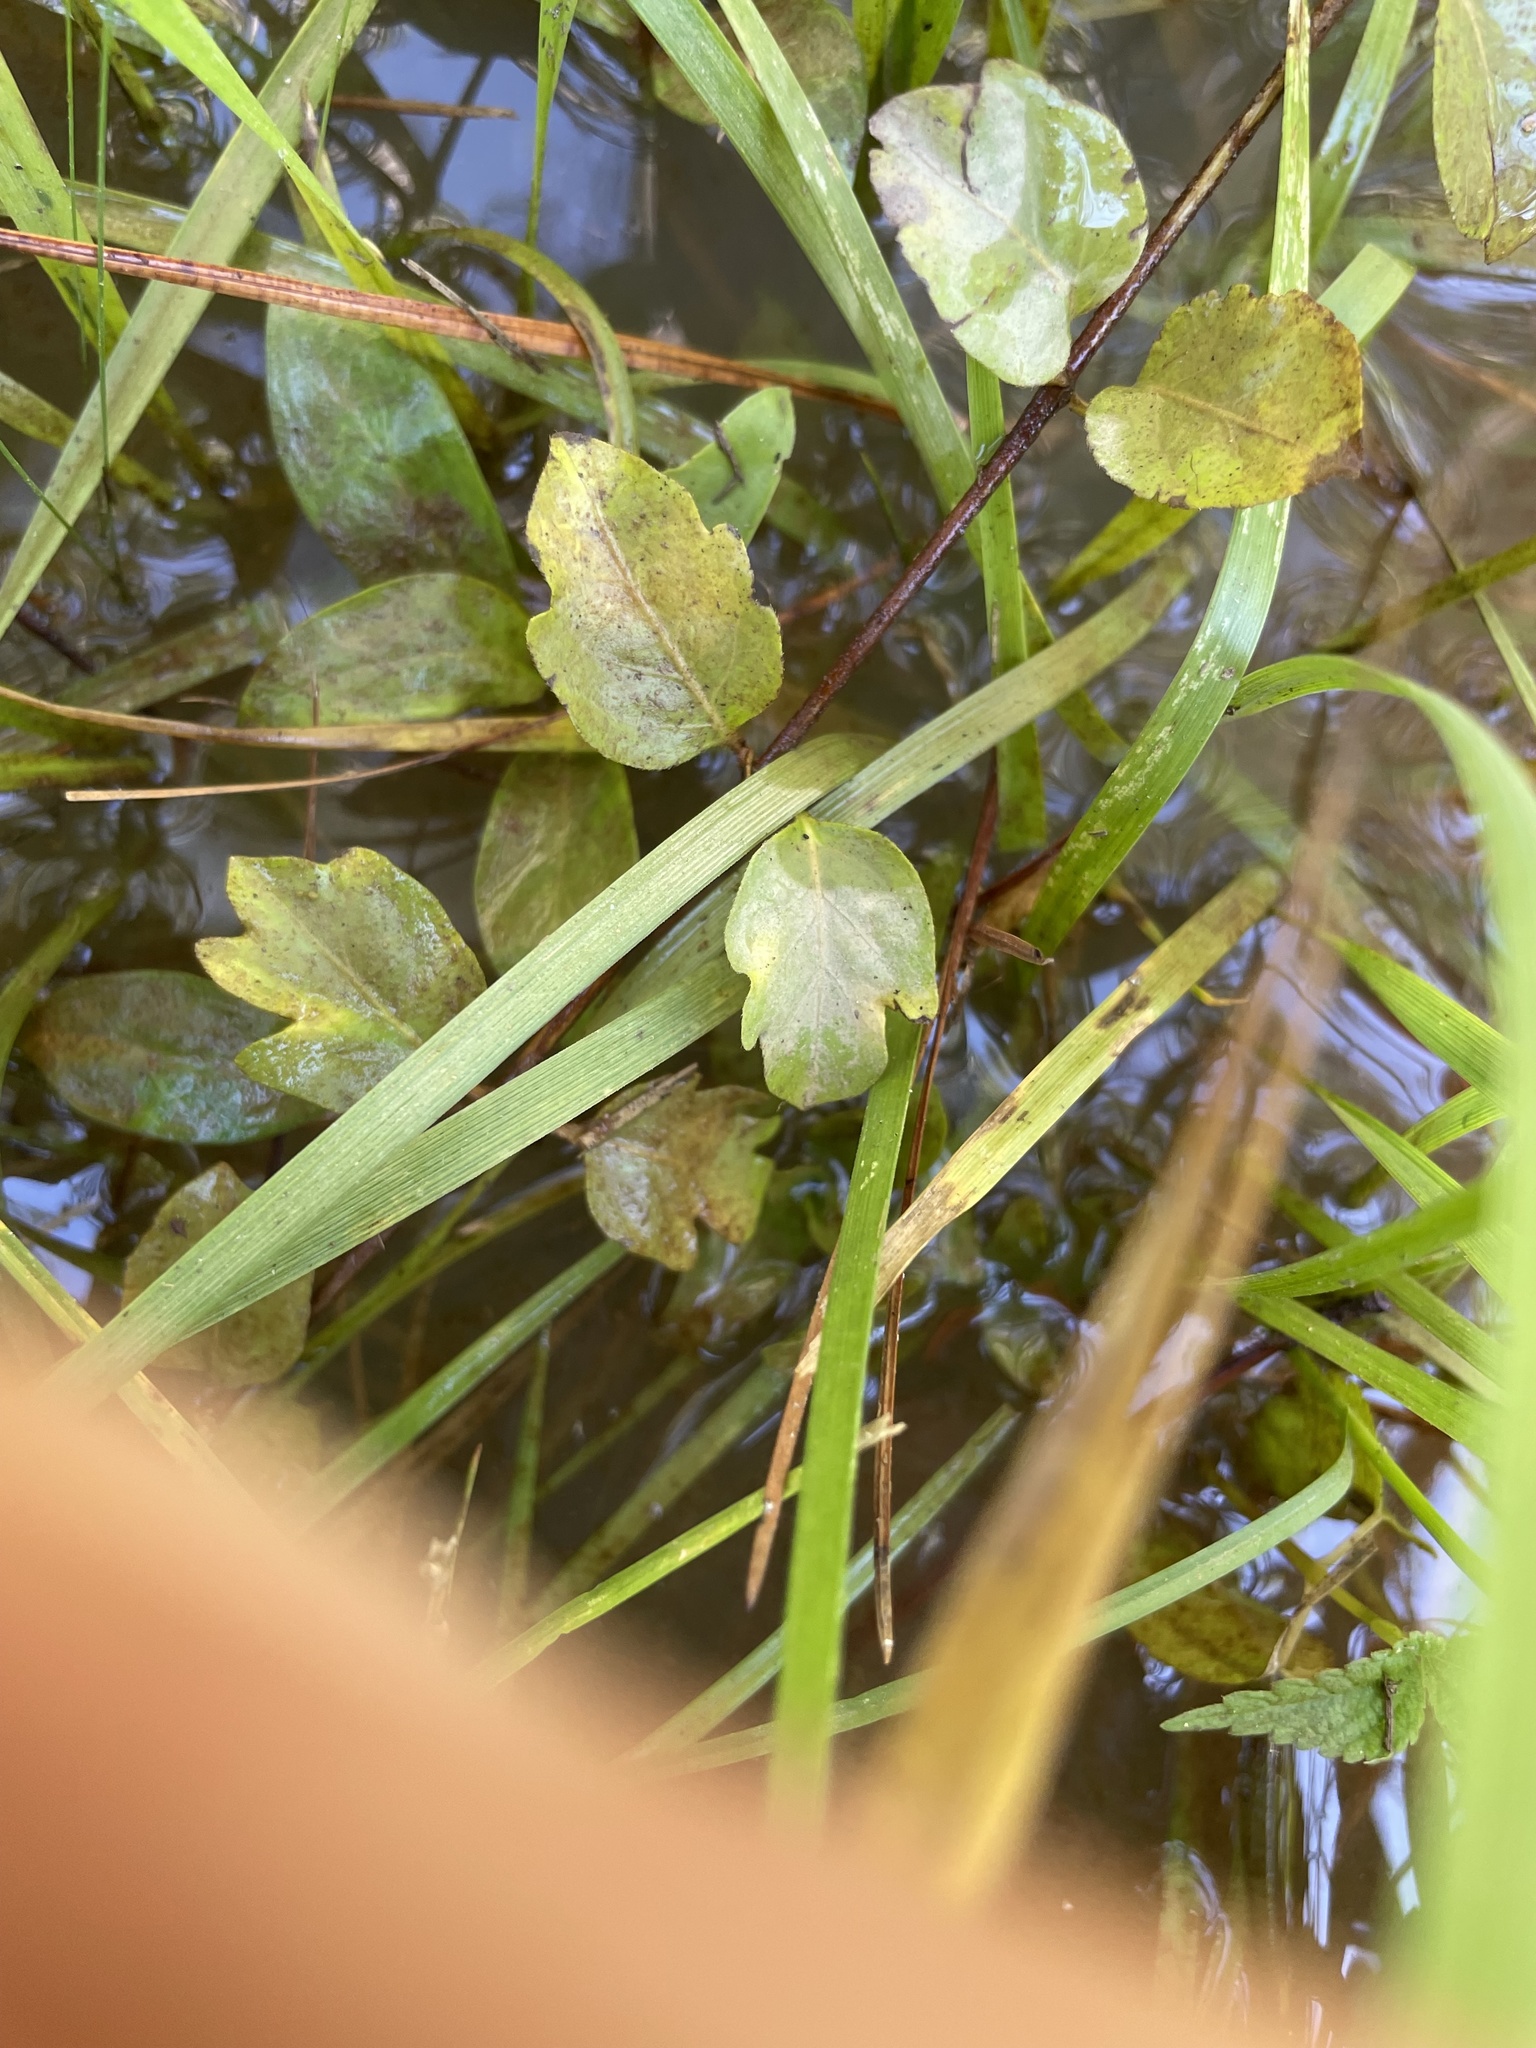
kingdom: Plantae
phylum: Tracheophyta
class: Magnoliopsida
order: Apiales
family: Apiaceae
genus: Eryngium
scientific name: Eryngium prostratum
